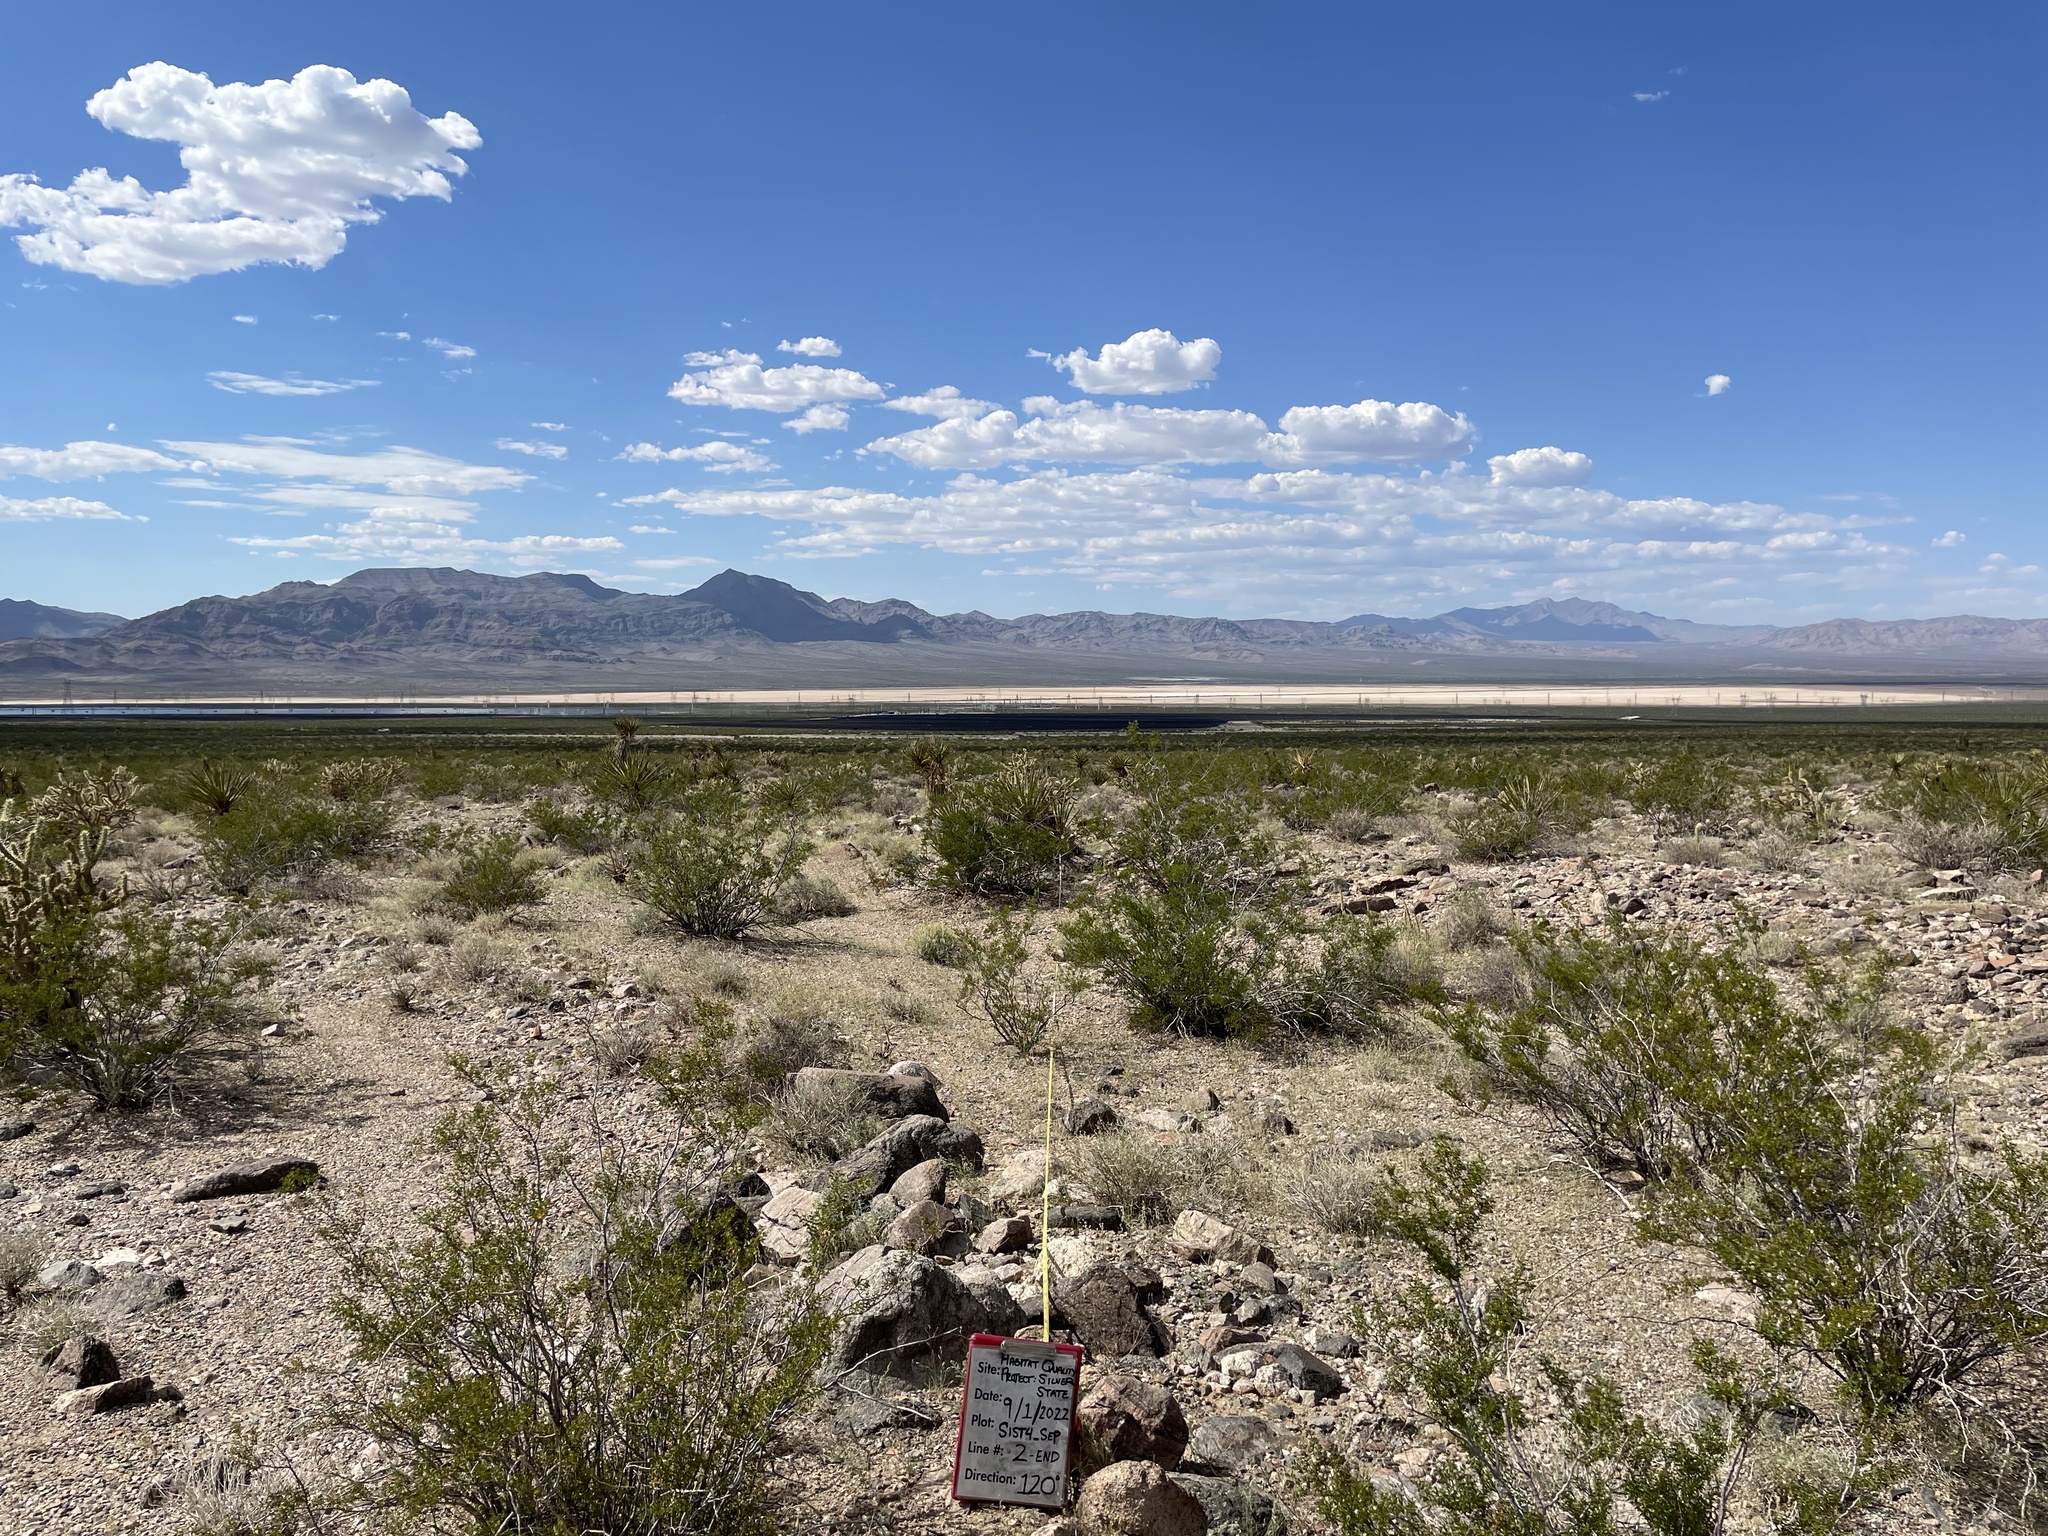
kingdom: Plantae
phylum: Tracheophyta
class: Magnoliopsida
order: Zygophyllales
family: Zygophyllaceae
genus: Larrea
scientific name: Larrea tridentata
